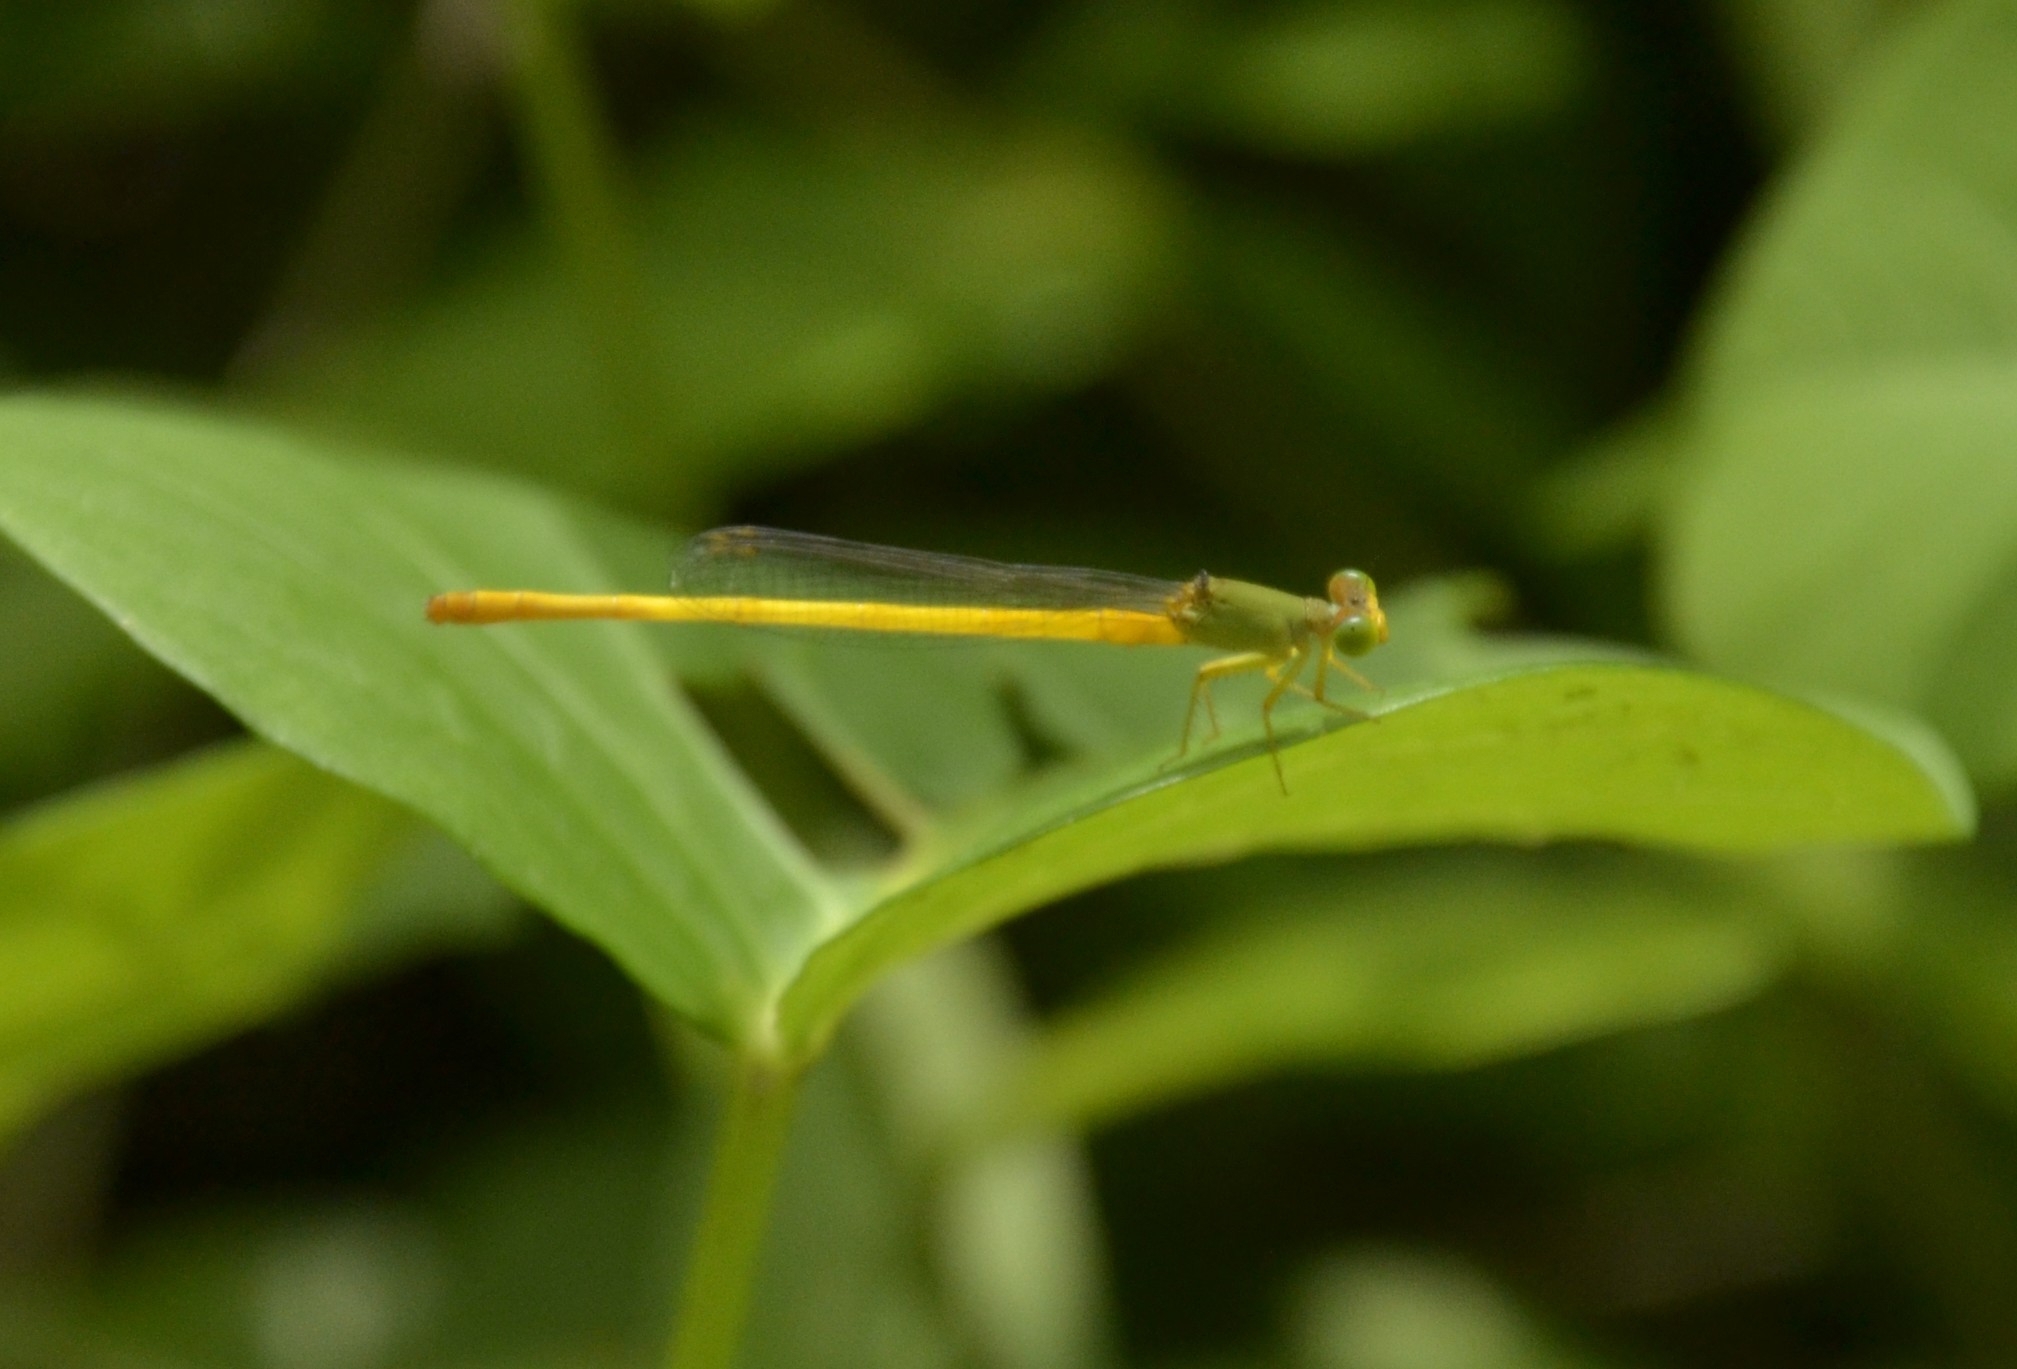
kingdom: Animalia
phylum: Arthropoda
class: Insecta
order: Odonata
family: Coenagrionidae
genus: Ceriagrion
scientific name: Ceriagrion coromandelianum
